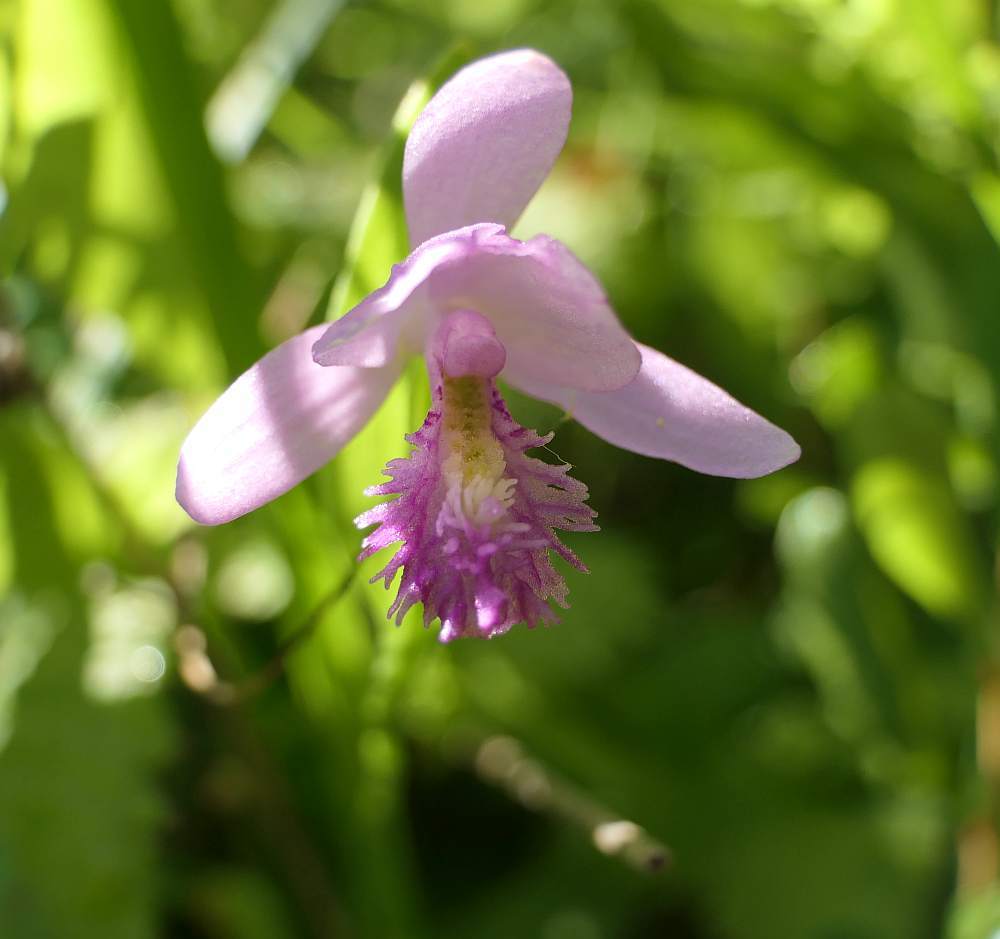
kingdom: Plantae
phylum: Tracheophyta
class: Liliopsida
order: Asparagales
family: Orchidaceae
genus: Pogonia
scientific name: Pogonia ophioglossoides
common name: Rose pogonia
